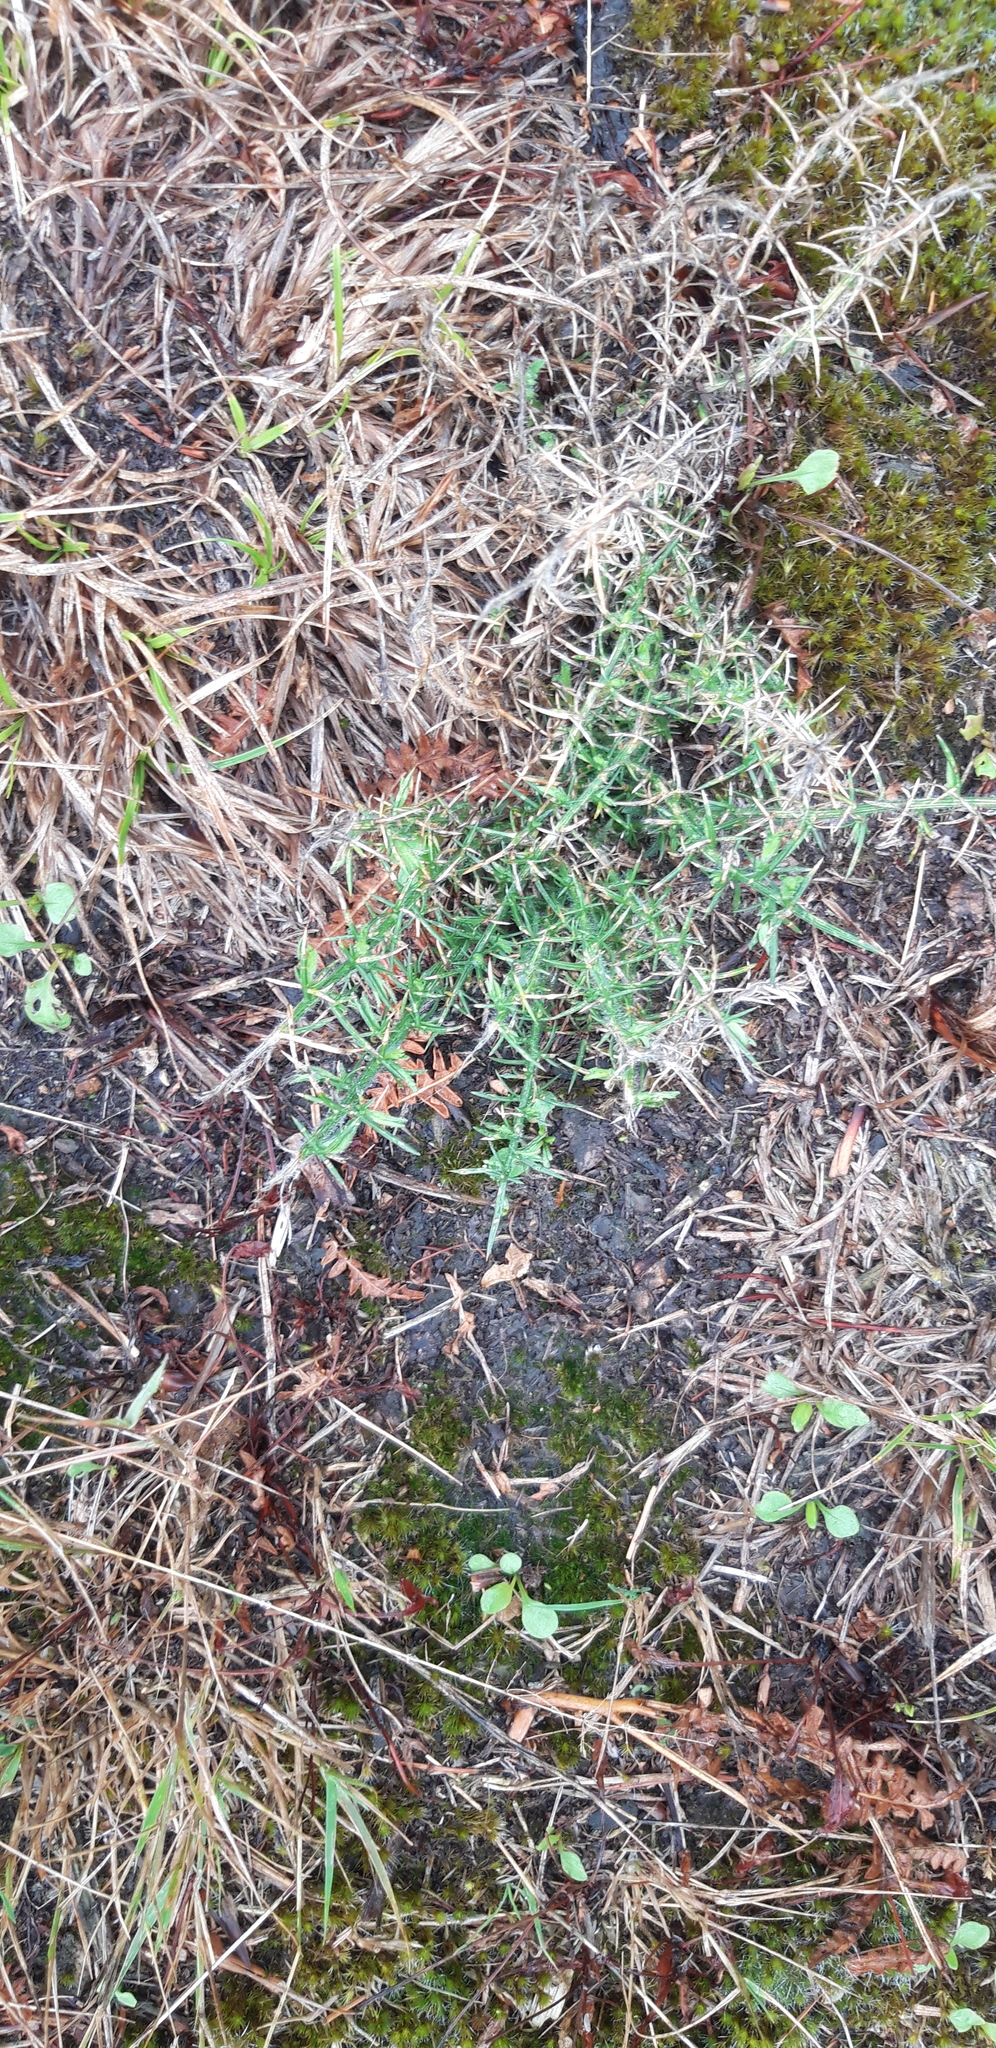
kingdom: Plantae
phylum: Tracheophyta
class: Magnoliopsida
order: Fabales
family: Fabaceae
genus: Ulex
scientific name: Ulex europaeus
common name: Common gorse
